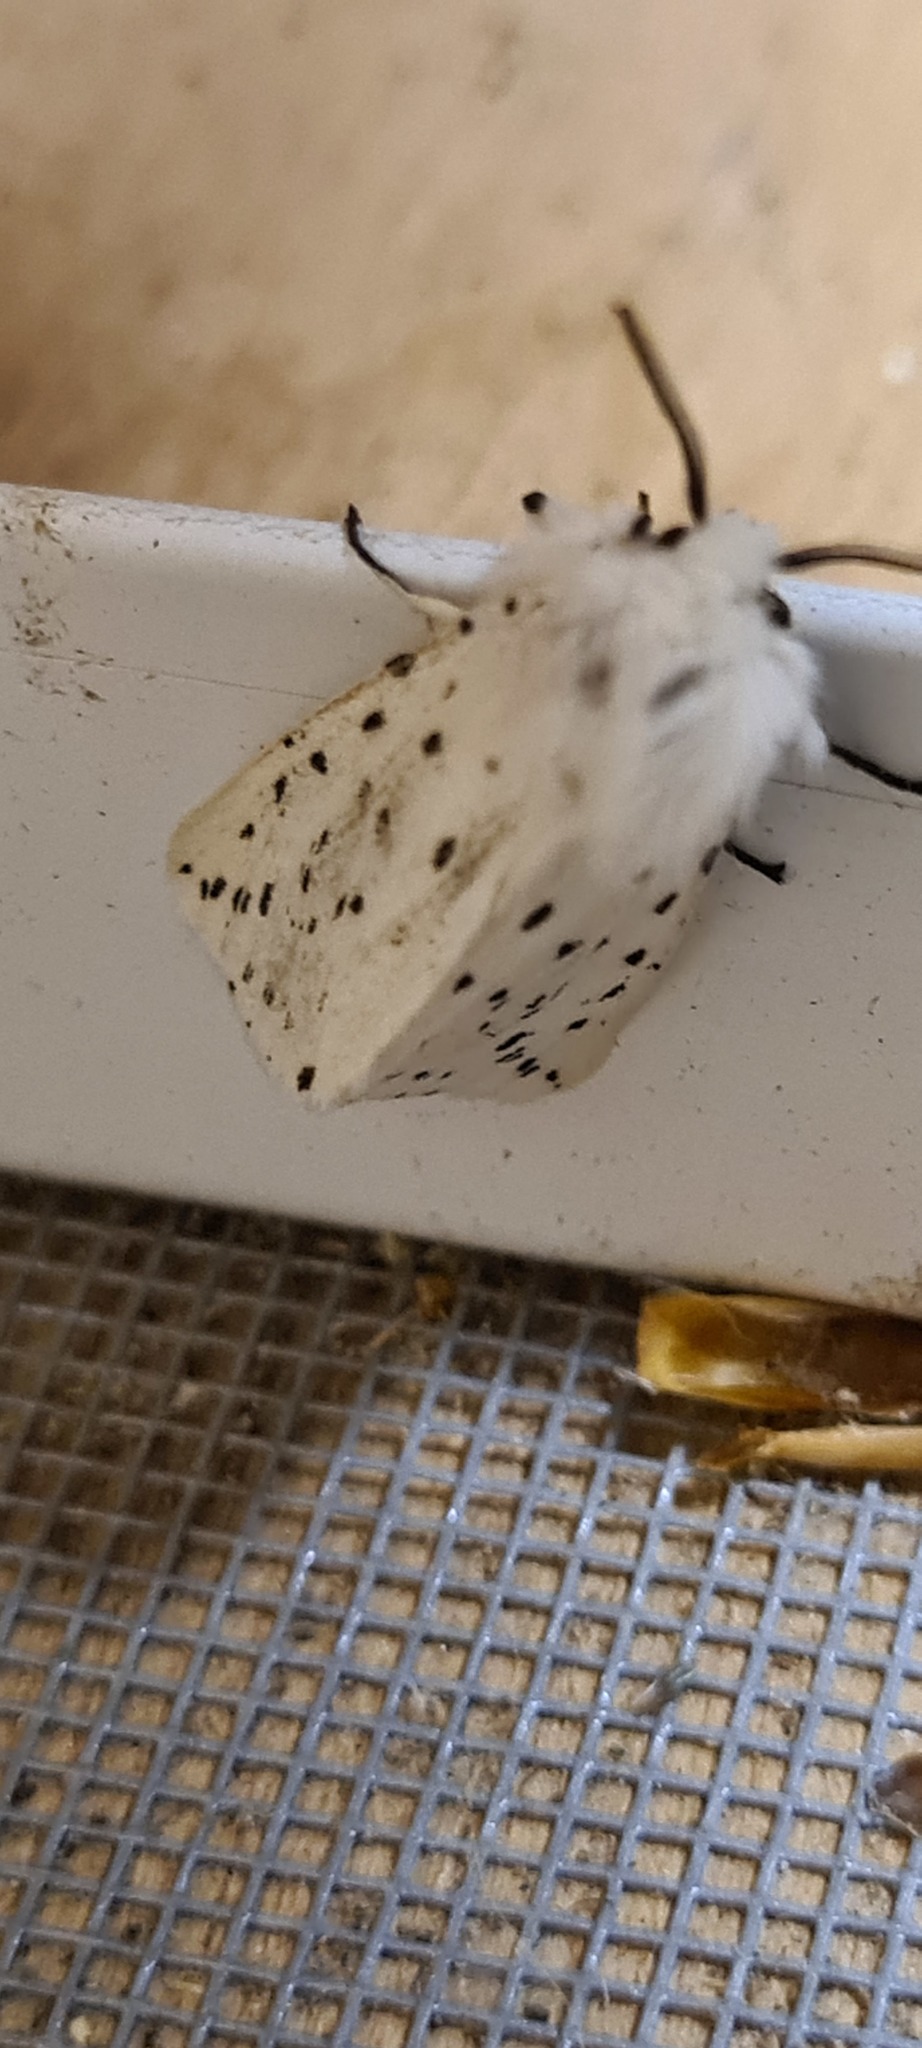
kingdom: Animalia
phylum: Arthropoda
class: Insecta
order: Lepidoptera
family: Erebidae
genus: Spilosoma
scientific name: Spilosoma lubricipeda
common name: White ermine
